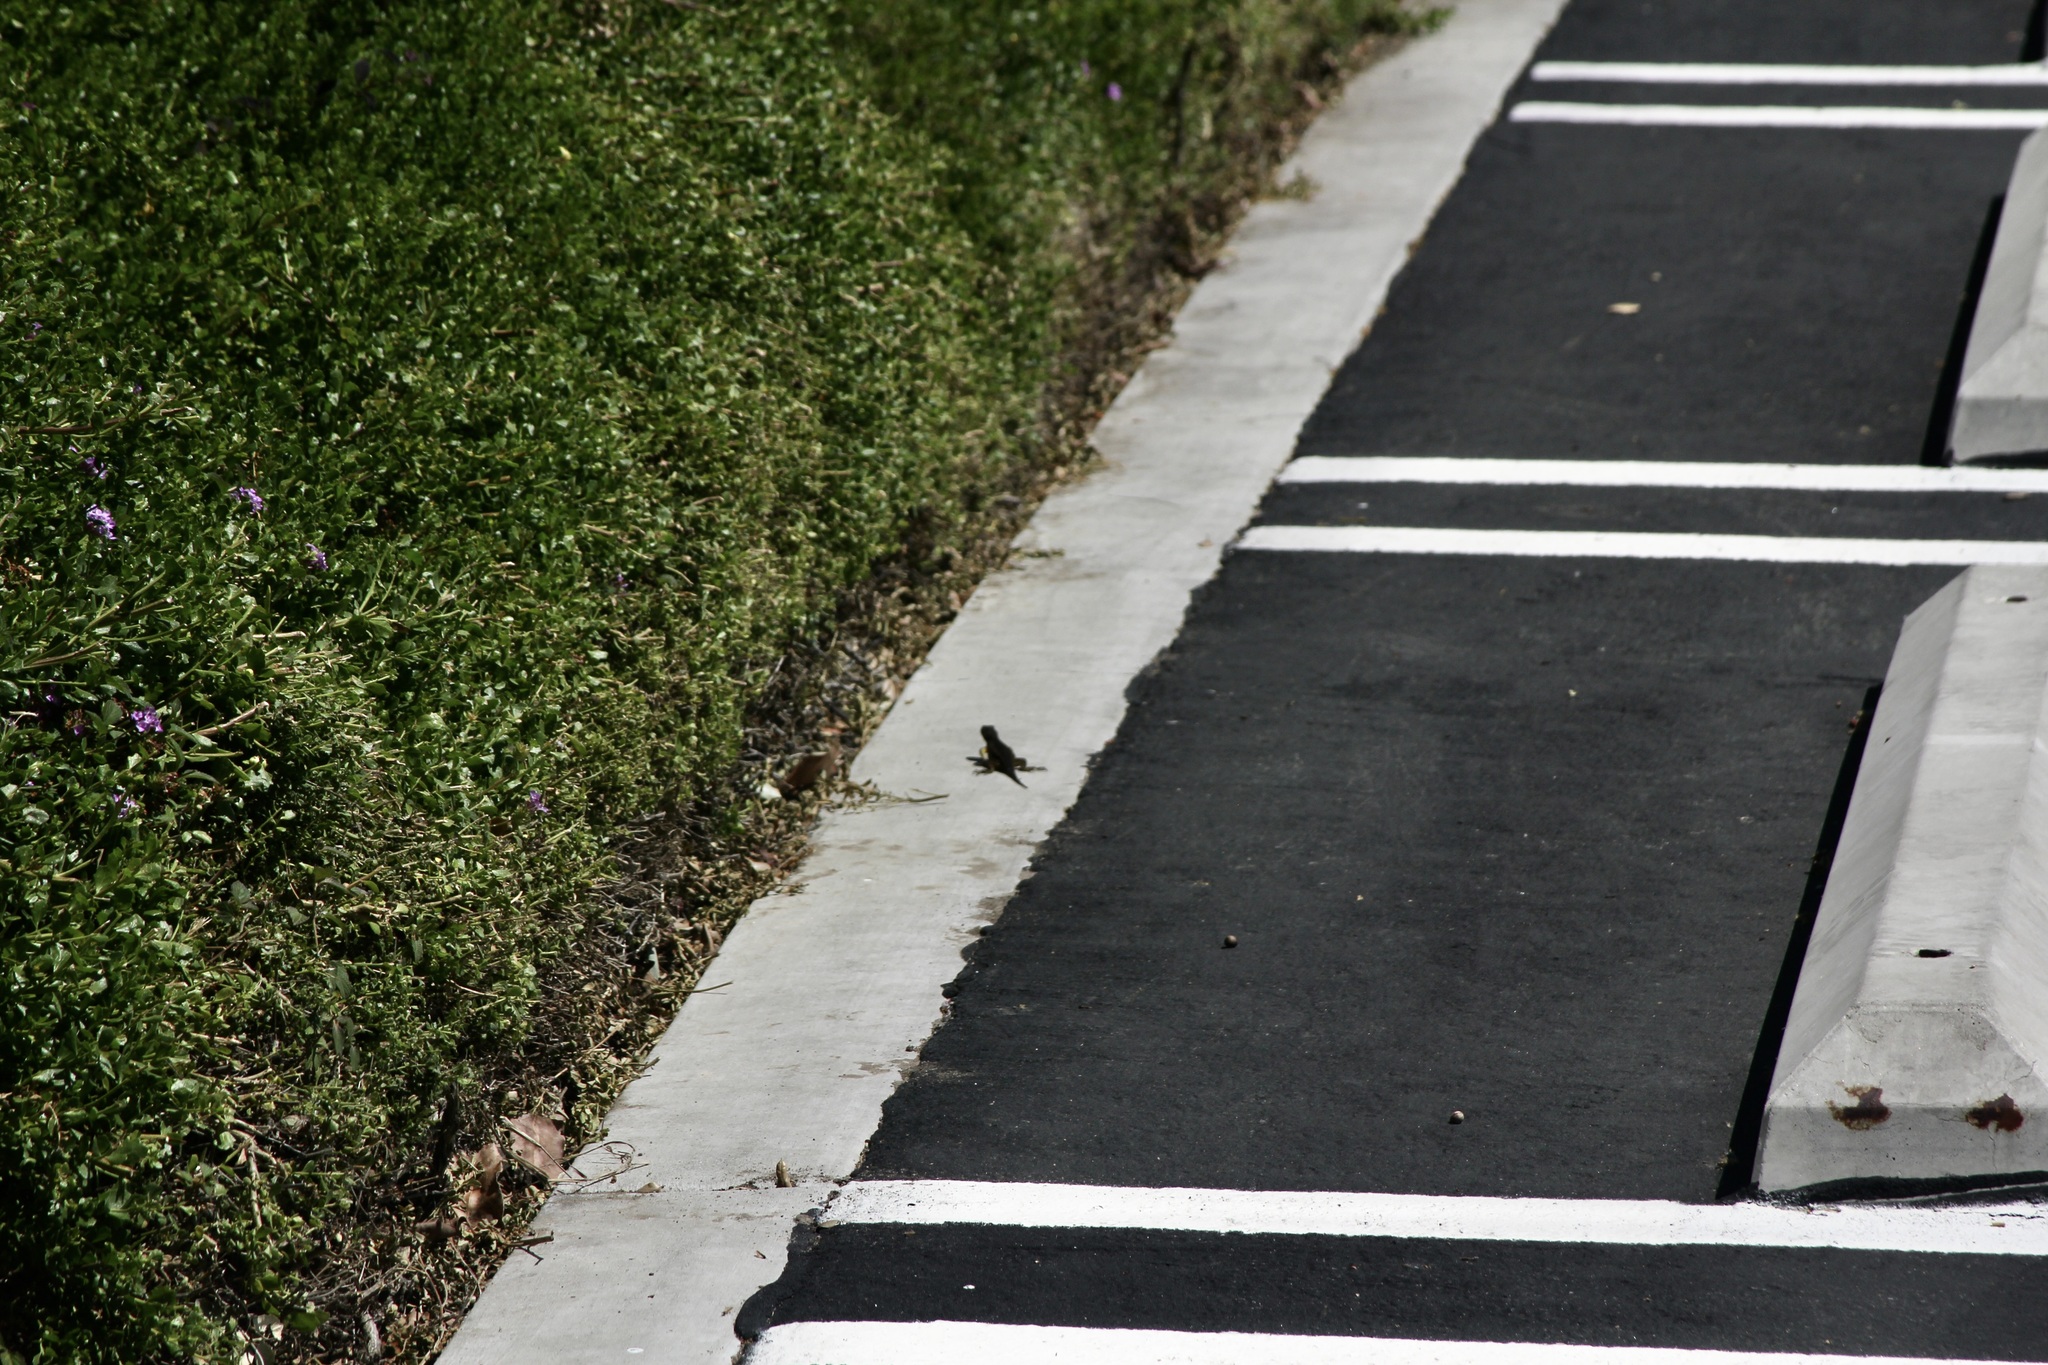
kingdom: Animalia
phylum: Chordata
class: Squamata
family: Phrynosomatidae
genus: Sceloporus
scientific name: Sceloporus occidentalis
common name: Western fence lizard
